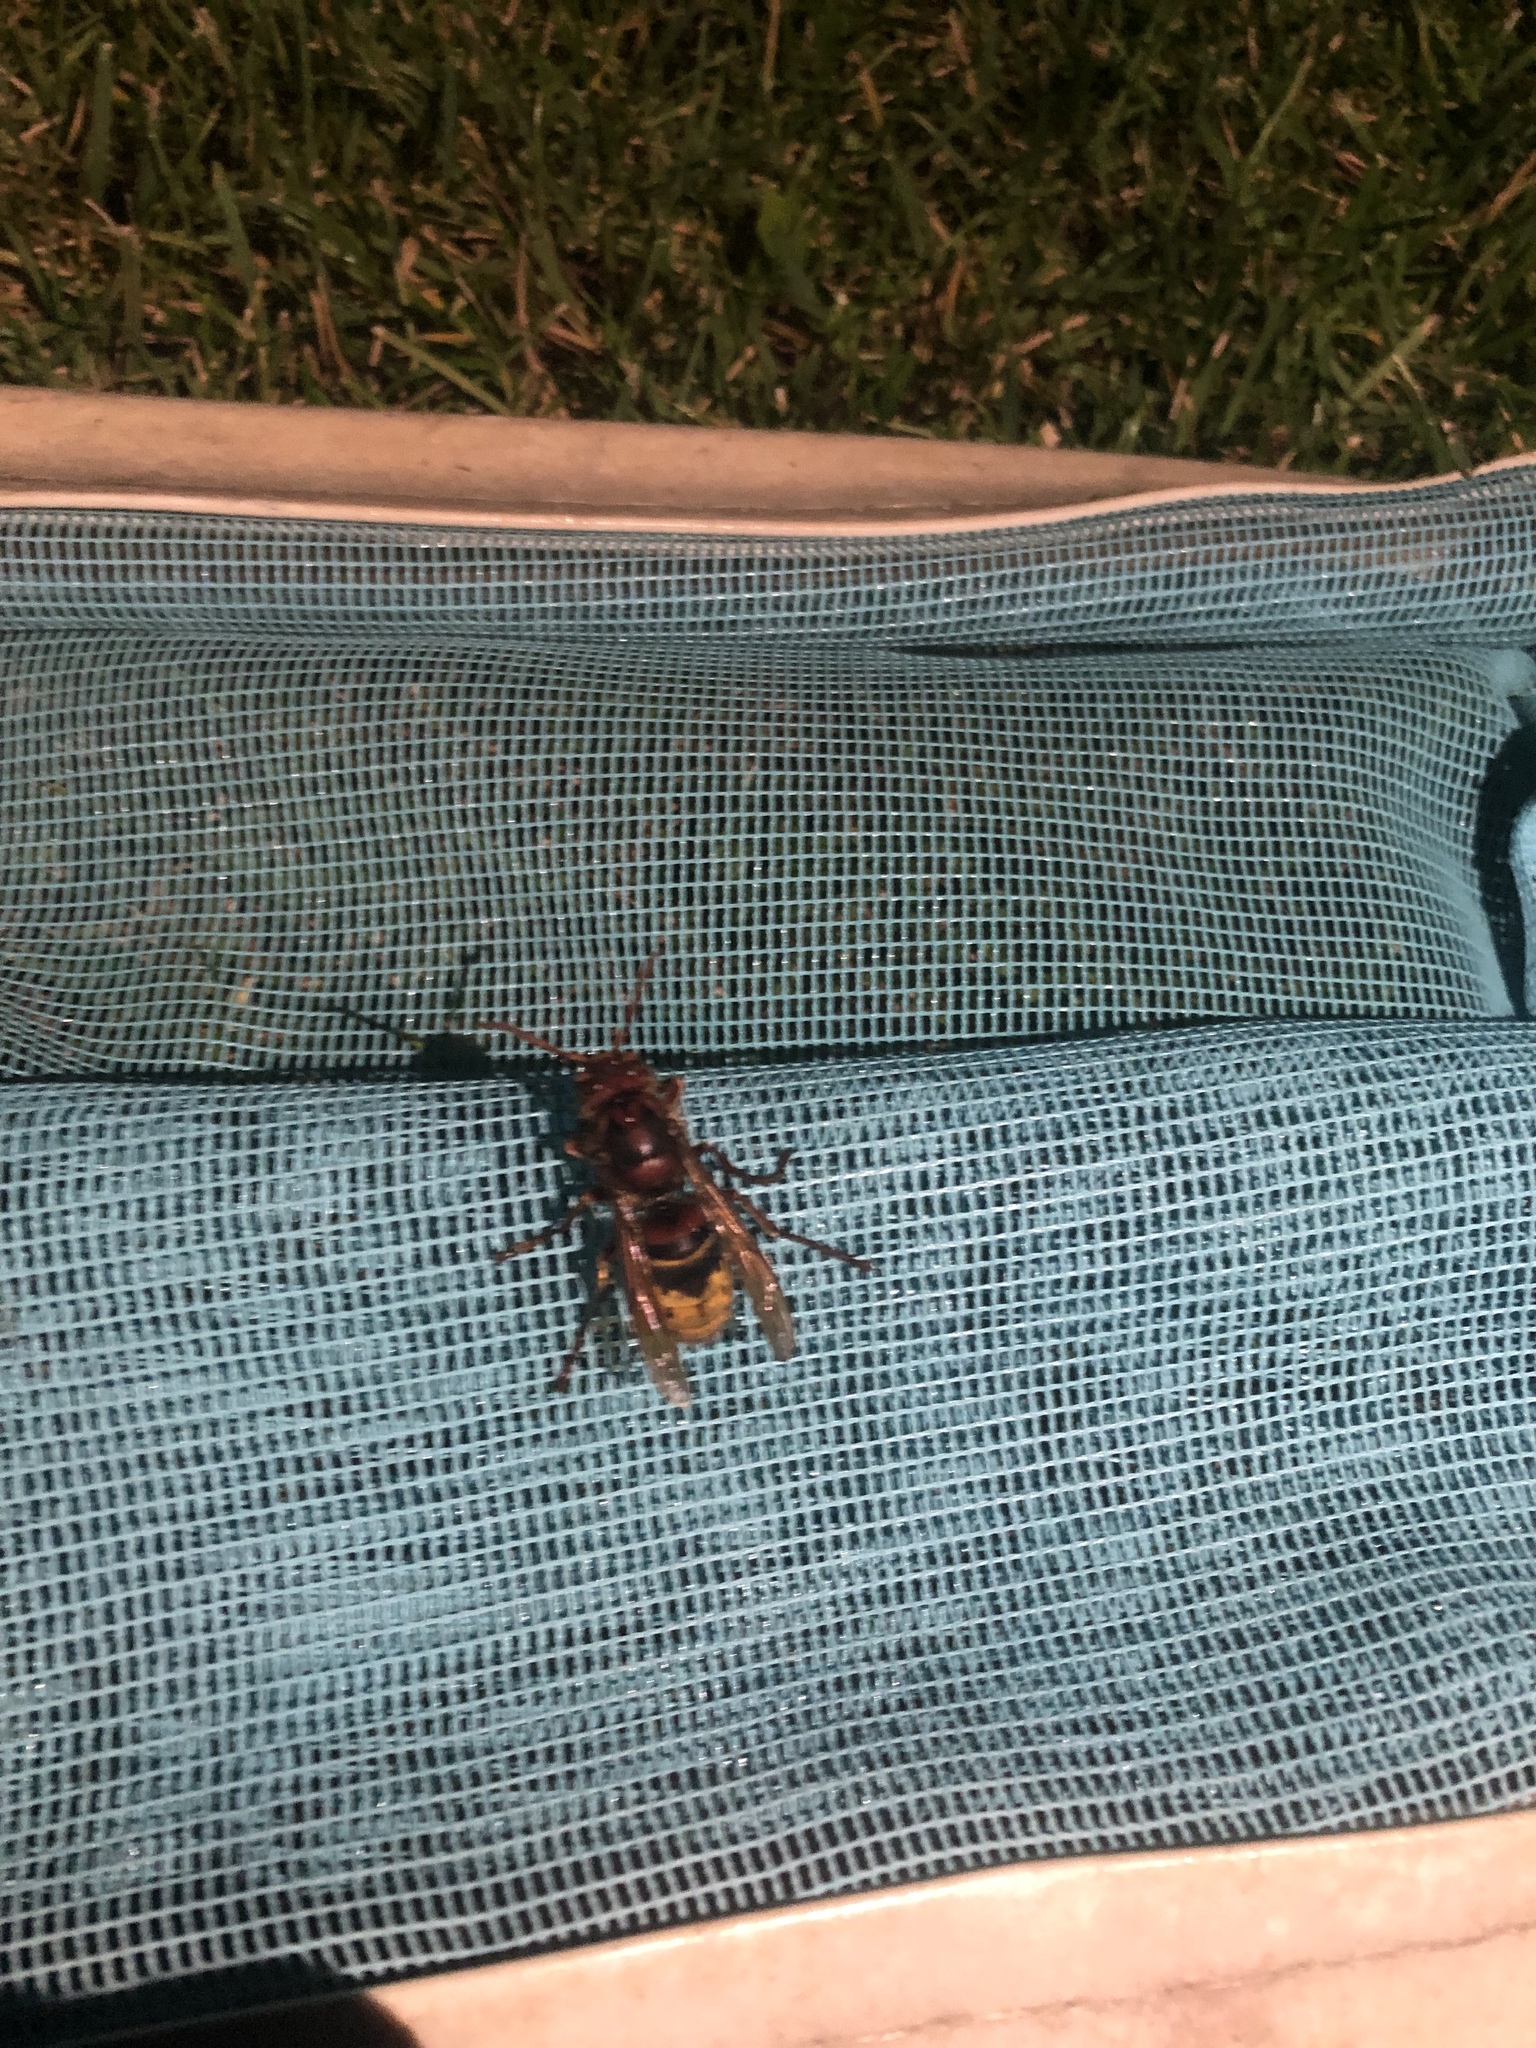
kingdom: Animalia
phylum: Arthropoda
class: Insecta
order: Hymenoptera
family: Vespidae
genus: Vespa
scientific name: Vespa crabro
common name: Hornet
